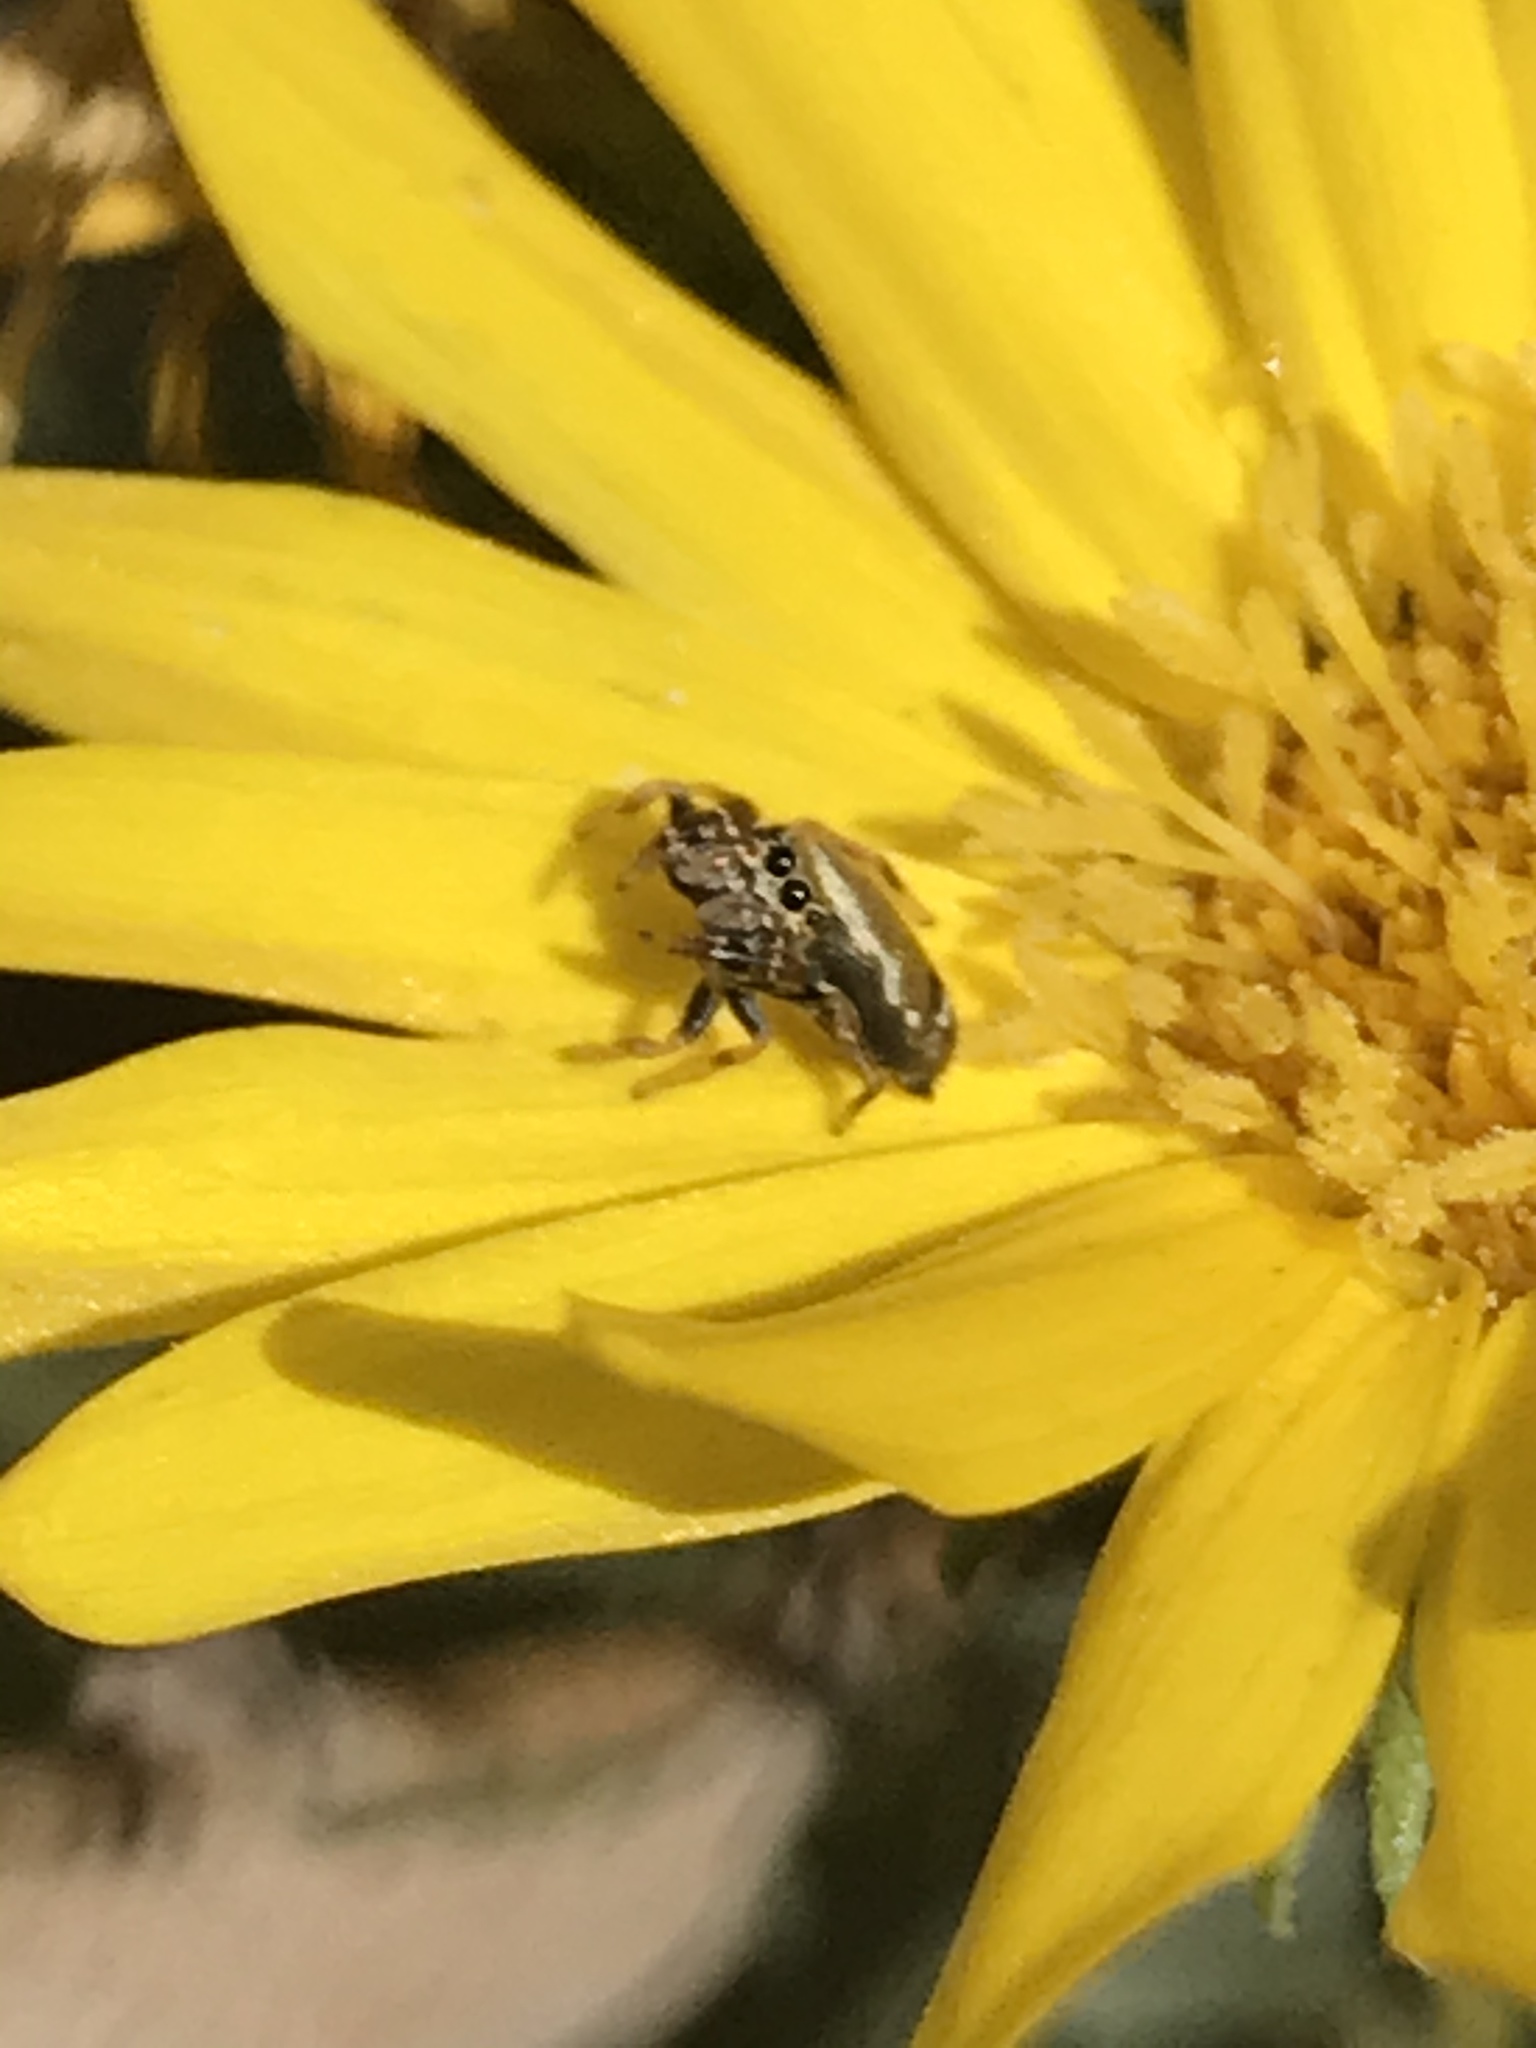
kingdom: Animalia
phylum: Arthropoda
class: Arachnida
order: Araneae
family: Salticidae
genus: Sassacus
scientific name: Sassacus vitis
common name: Jumping spiders
